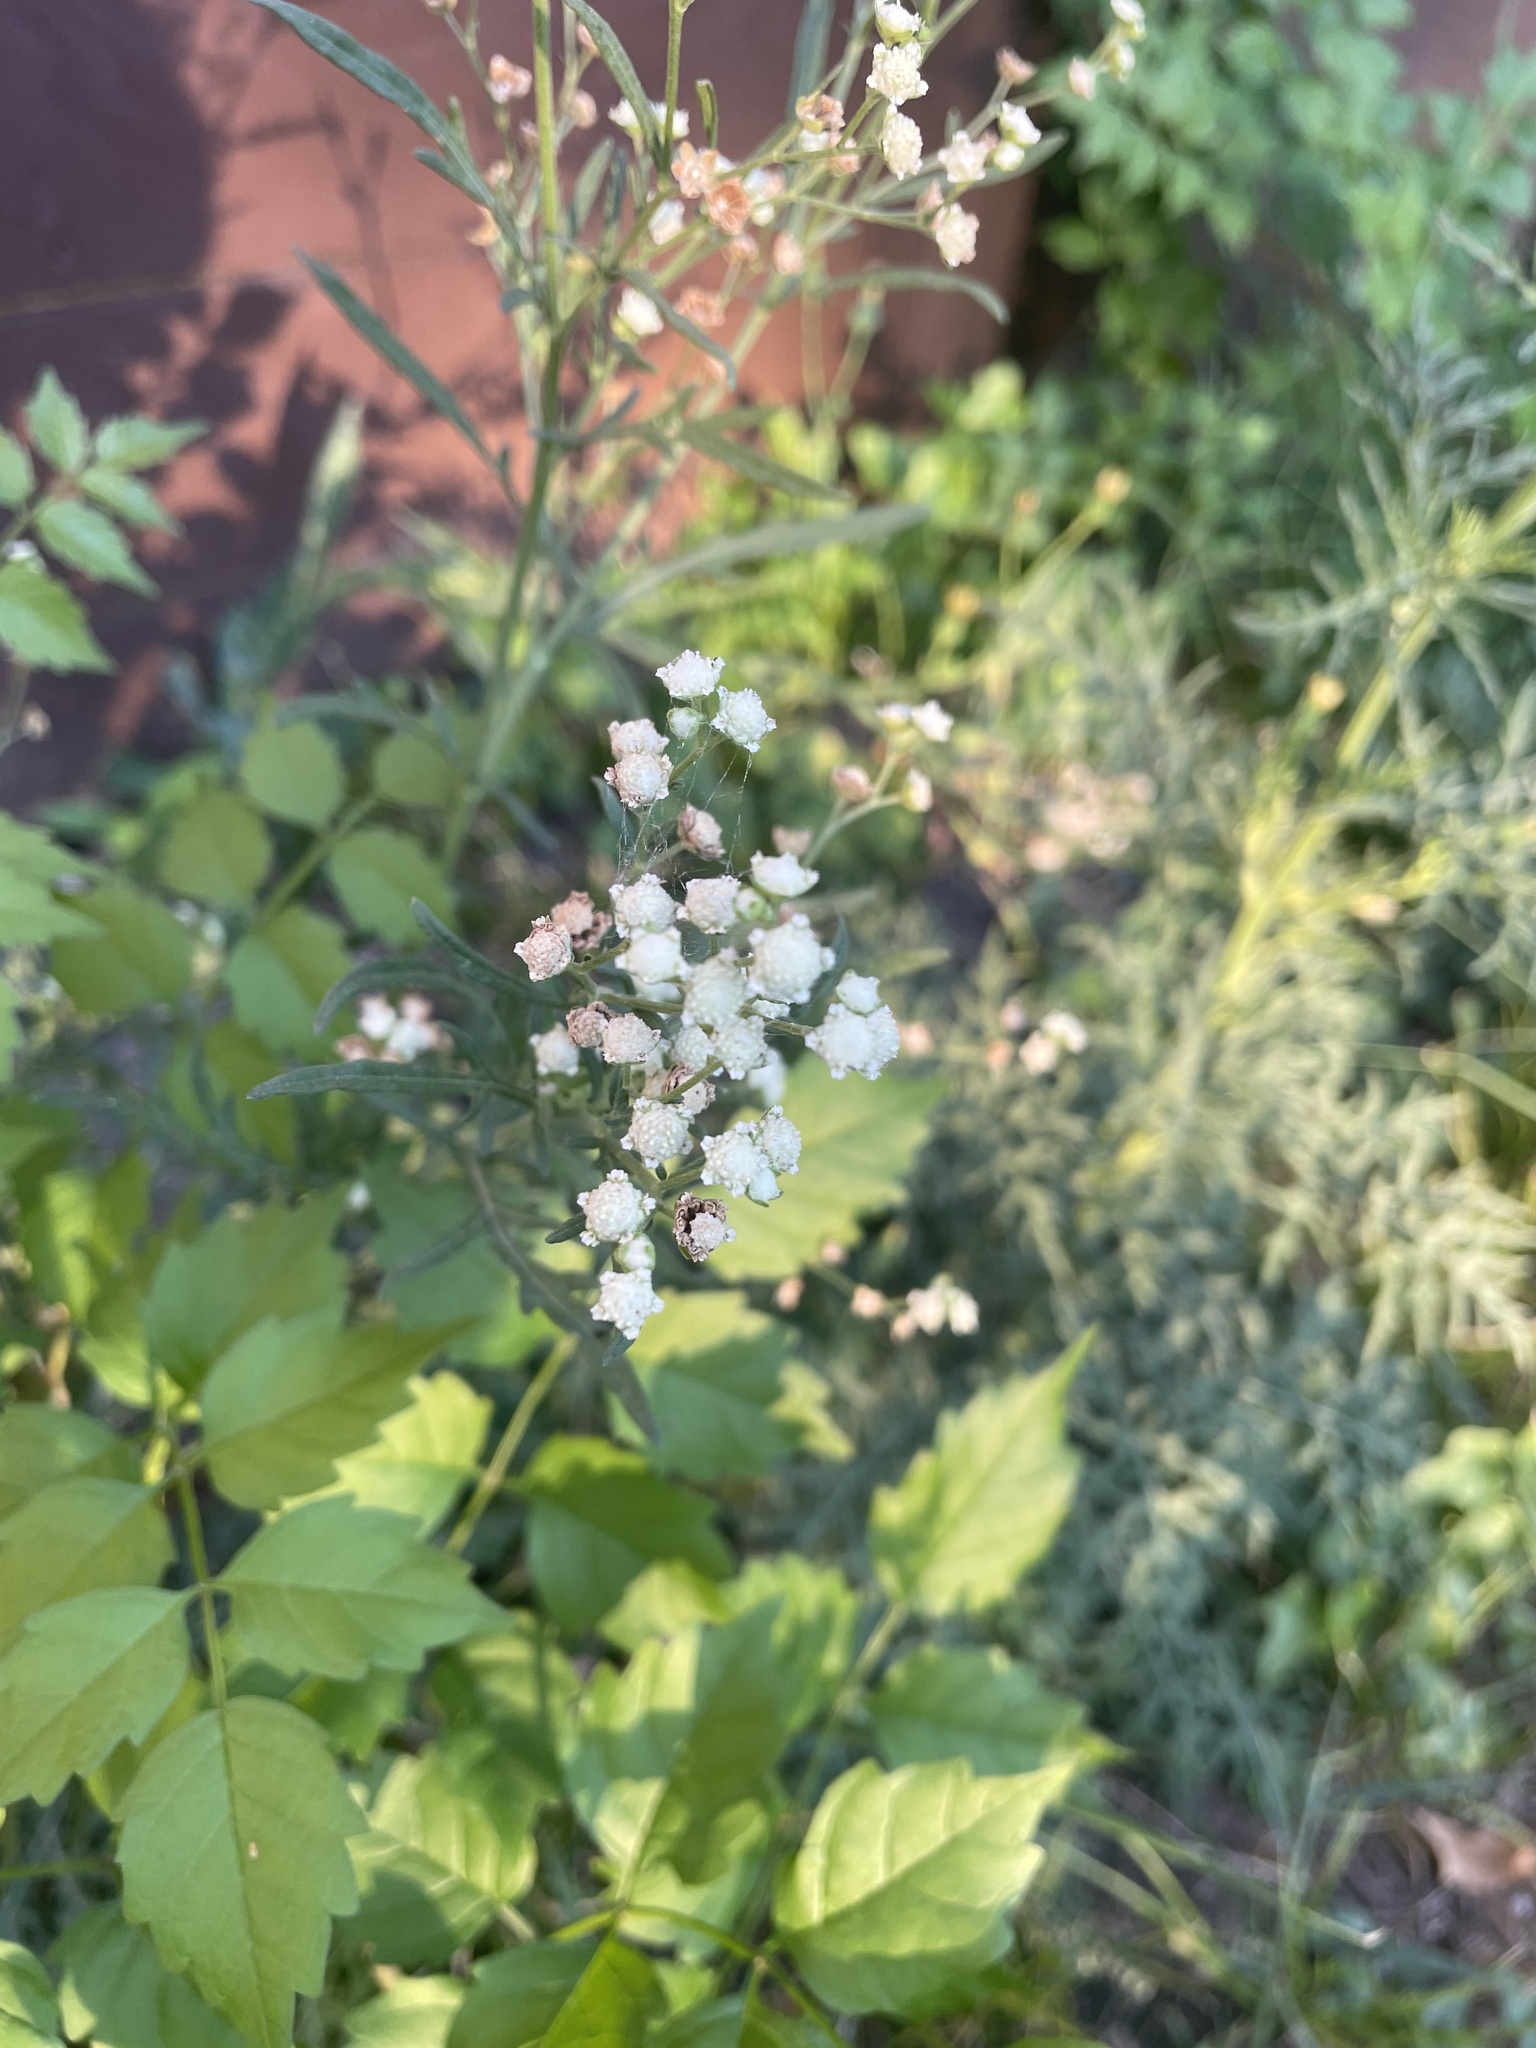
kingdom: Plantae
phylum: Tracheophyta
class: Magnoliopsida
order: Asterales
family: Asteraceae
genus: Parthenium
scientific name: Parthenium hysterophorus
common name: Santa maria feverfew
